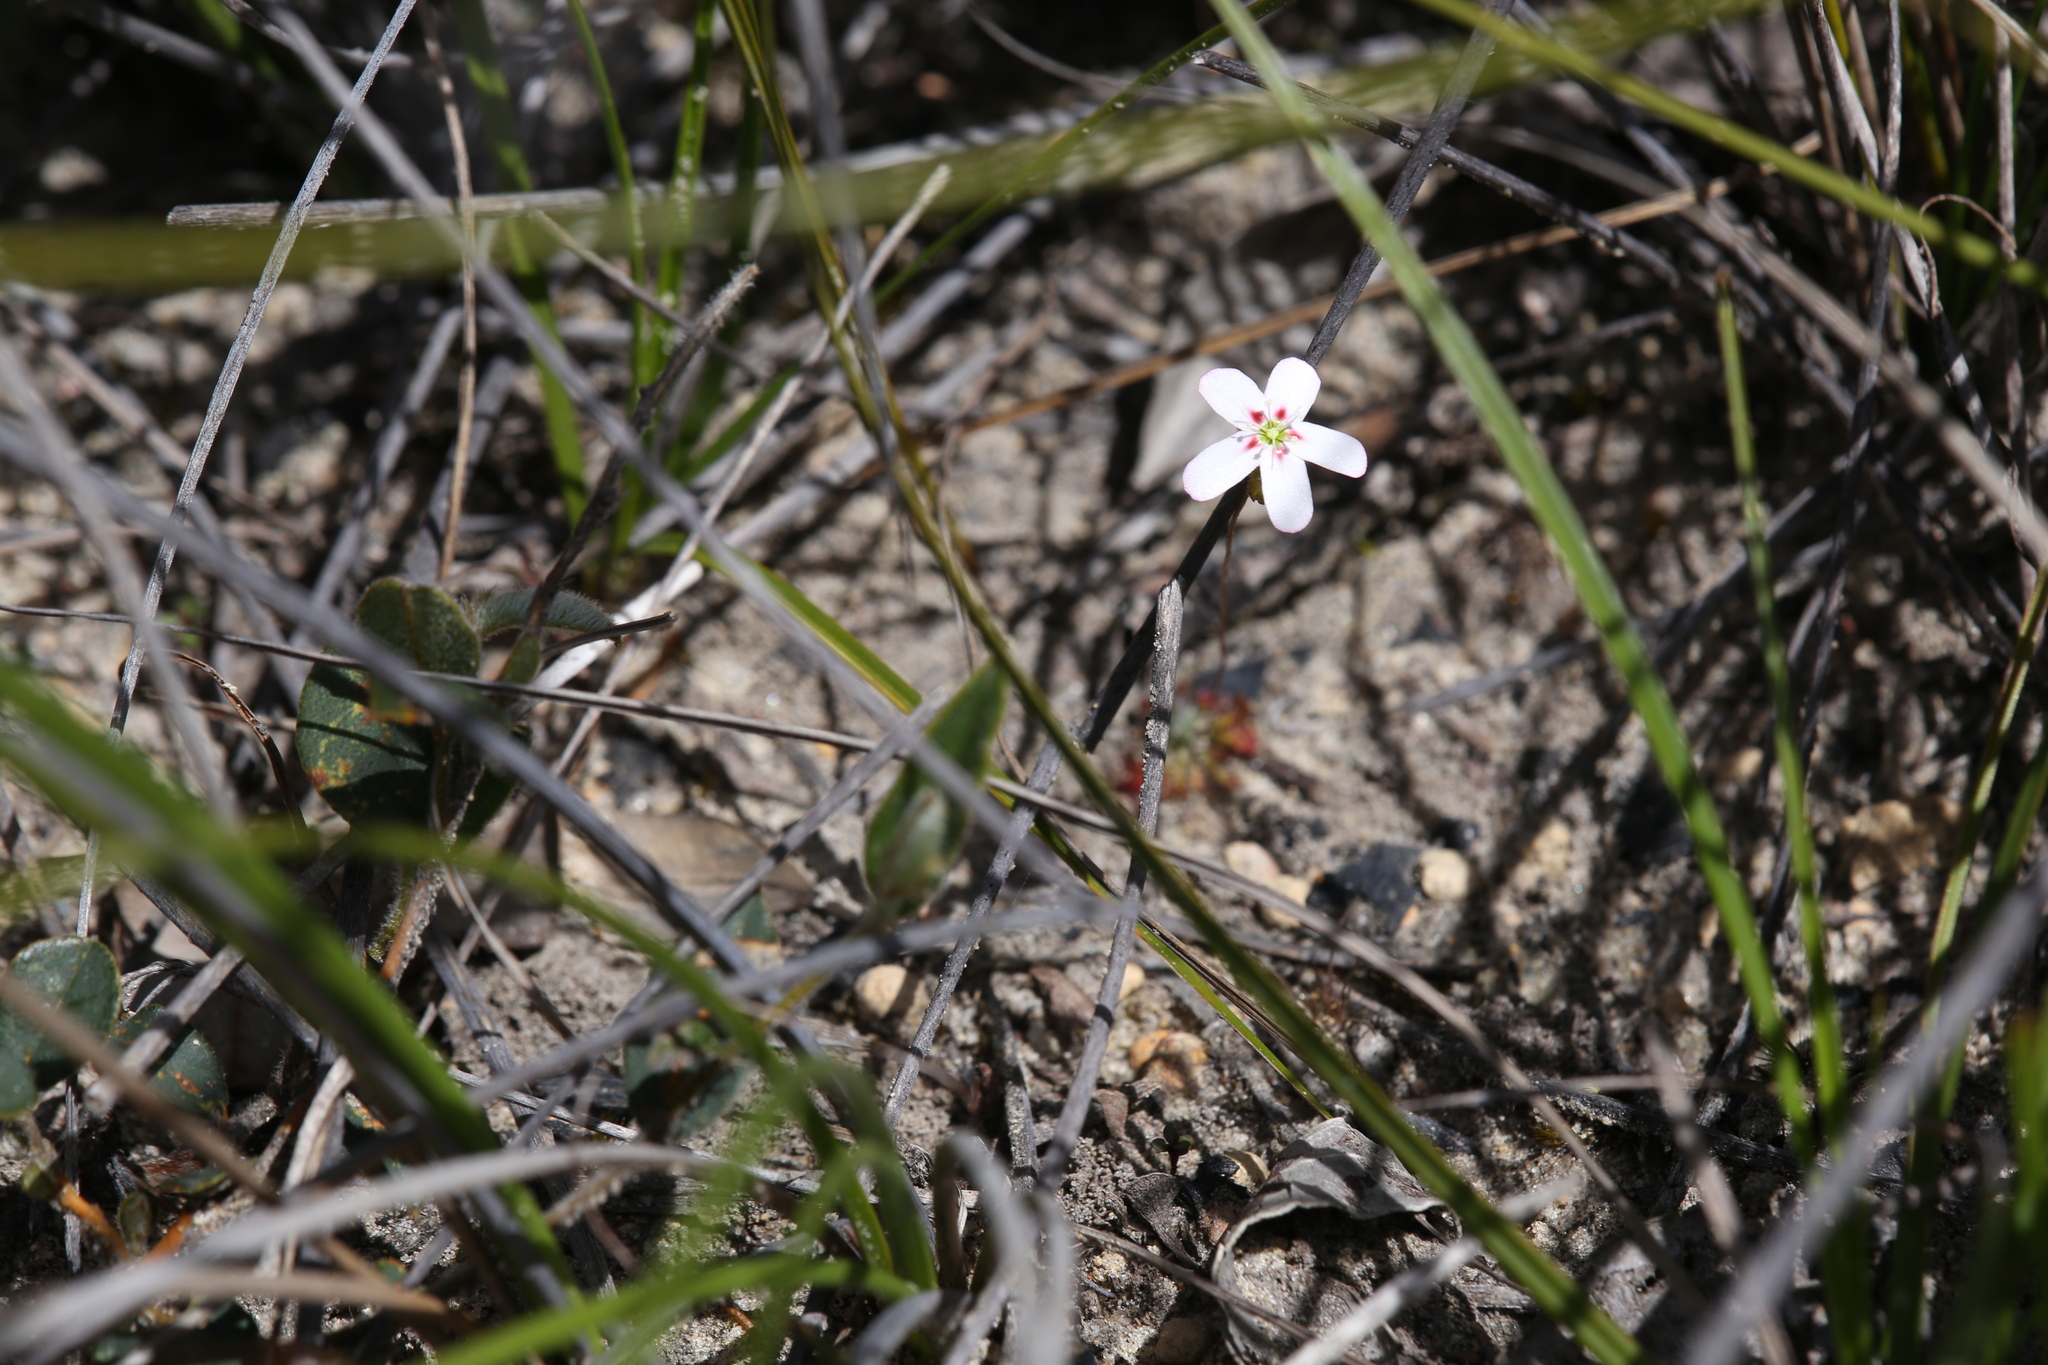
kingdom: Plantae
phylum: Tracheophyta
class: Magnoliopsida
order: Caryophyllales
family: Droseraceae
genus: Drosera
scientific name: Drosera spilos
